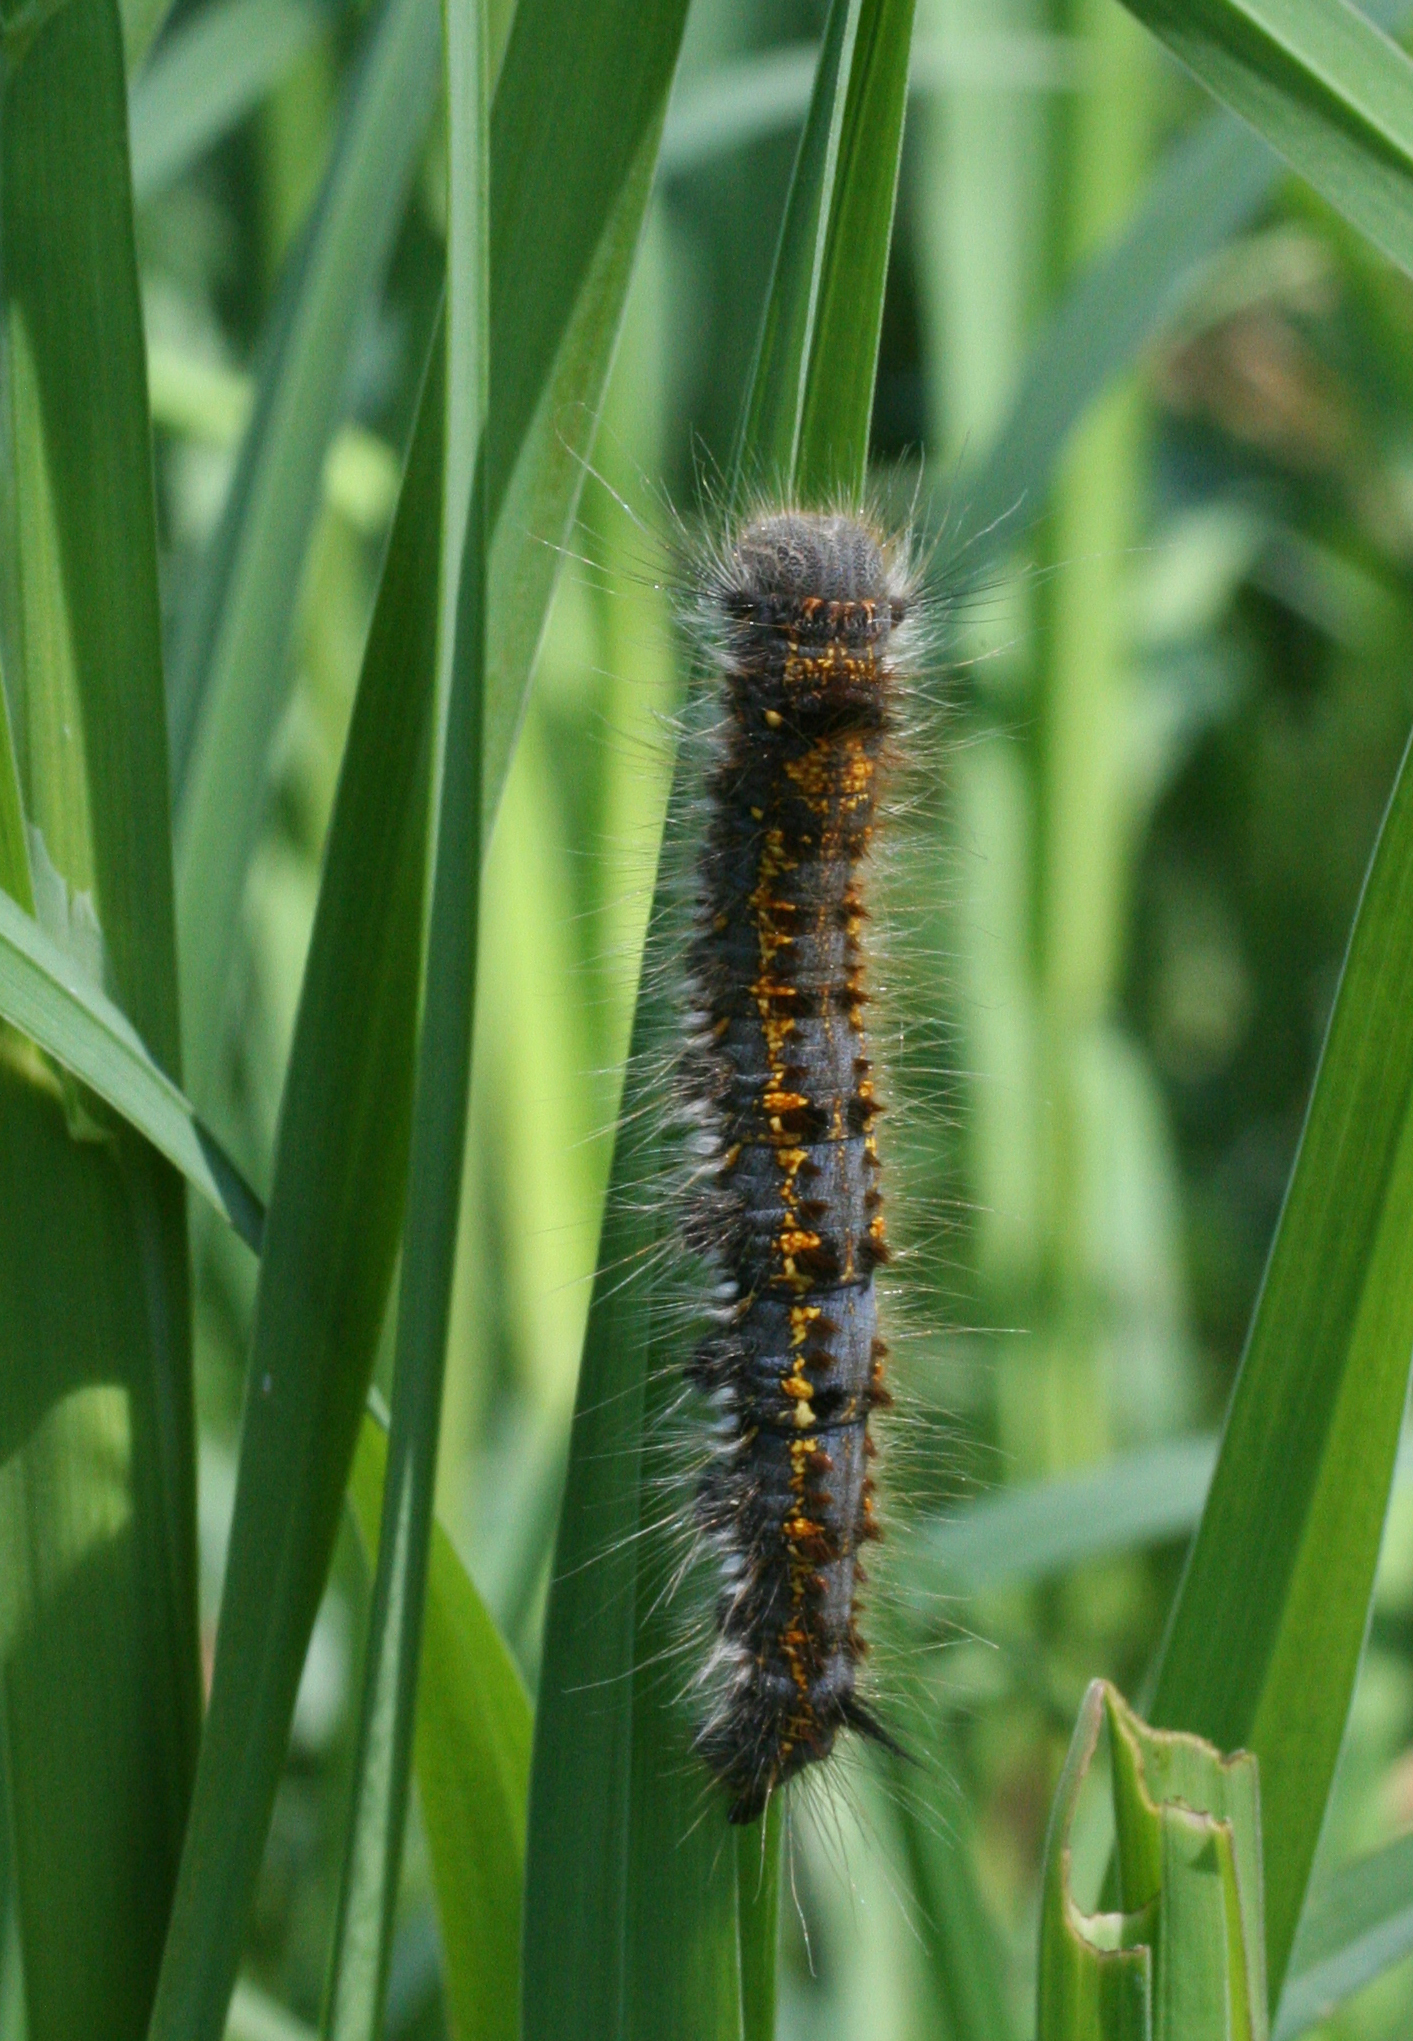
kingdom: Animalia
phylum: Arthropoda
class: Insecta
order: Lepidoptera
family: Lasiocampidae
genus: Euthrix
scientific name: Euthrix potatoria
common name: Drinker
